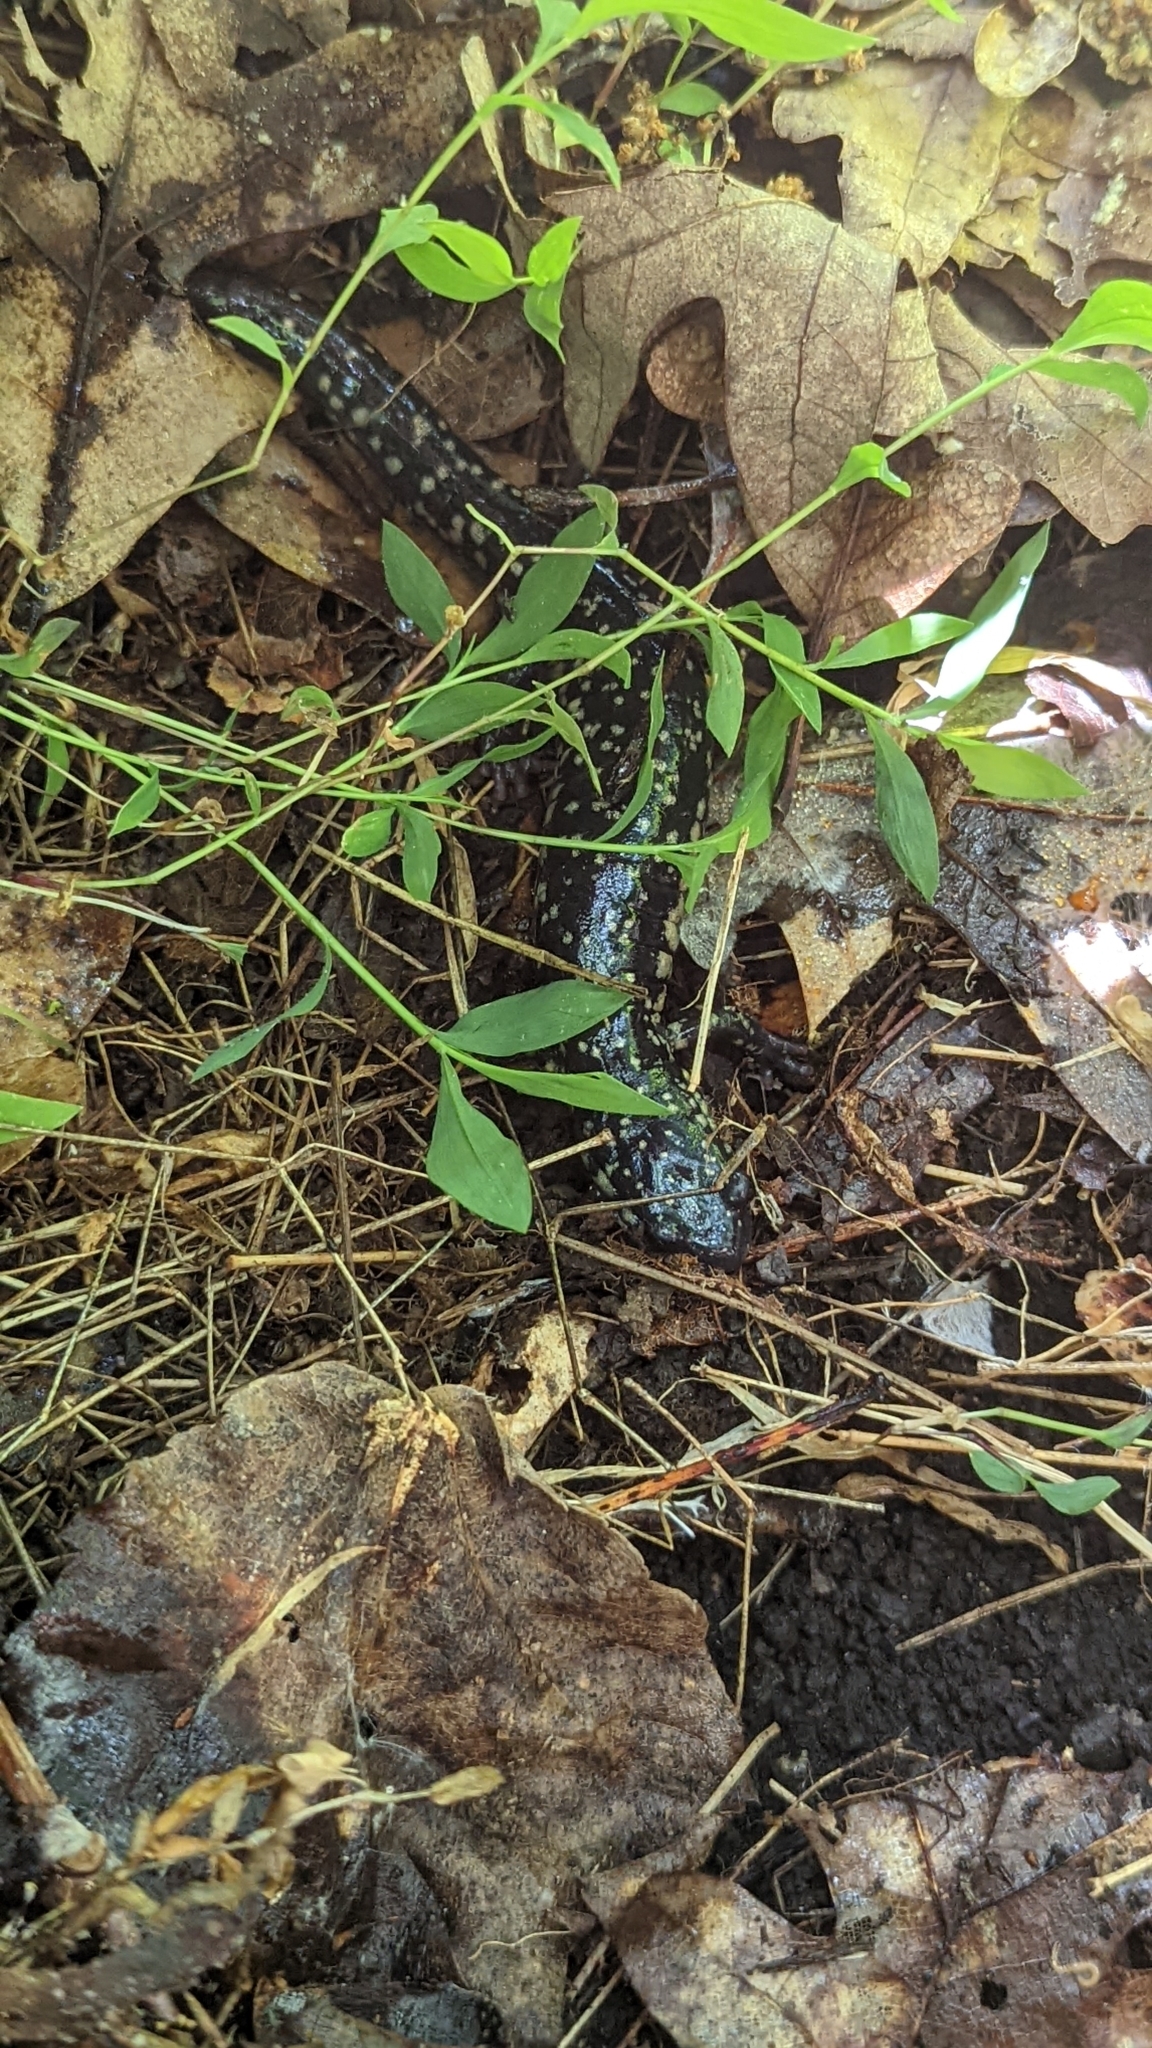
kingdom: Animalia
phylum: Chordata
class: Amphibia
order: Caudata
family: Plethodontidae
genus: Plethodon
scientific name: Plethodon glutinosus
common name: Northern slimy salamander
